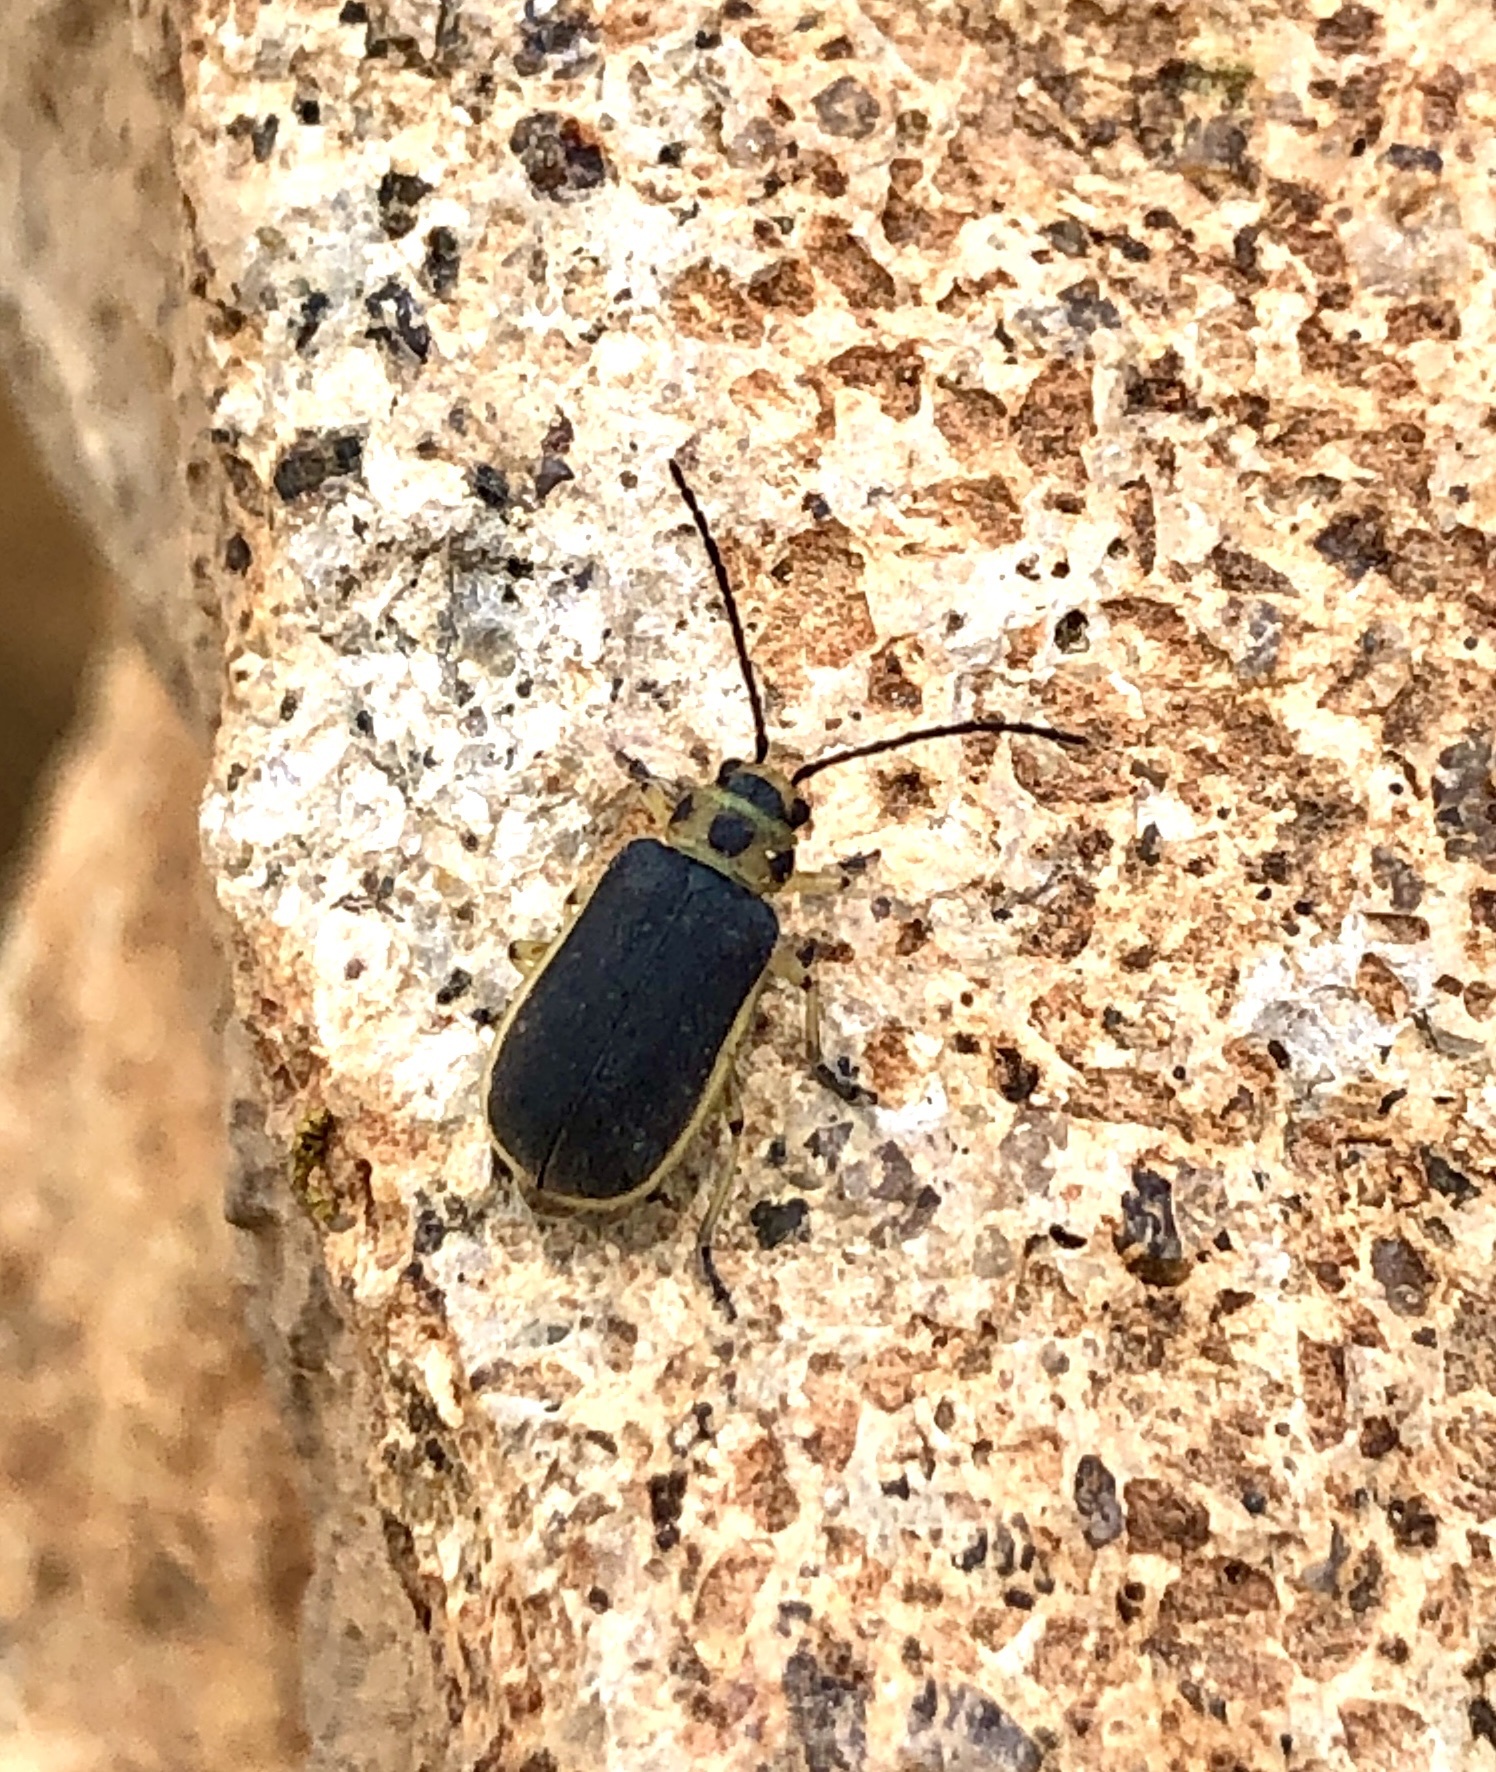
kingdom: Animalia
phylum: Arthropoda
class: Insecta
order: Coleoptera
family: Chrysomelidae
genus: Trirhabda
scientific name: Trirhabda geminata
